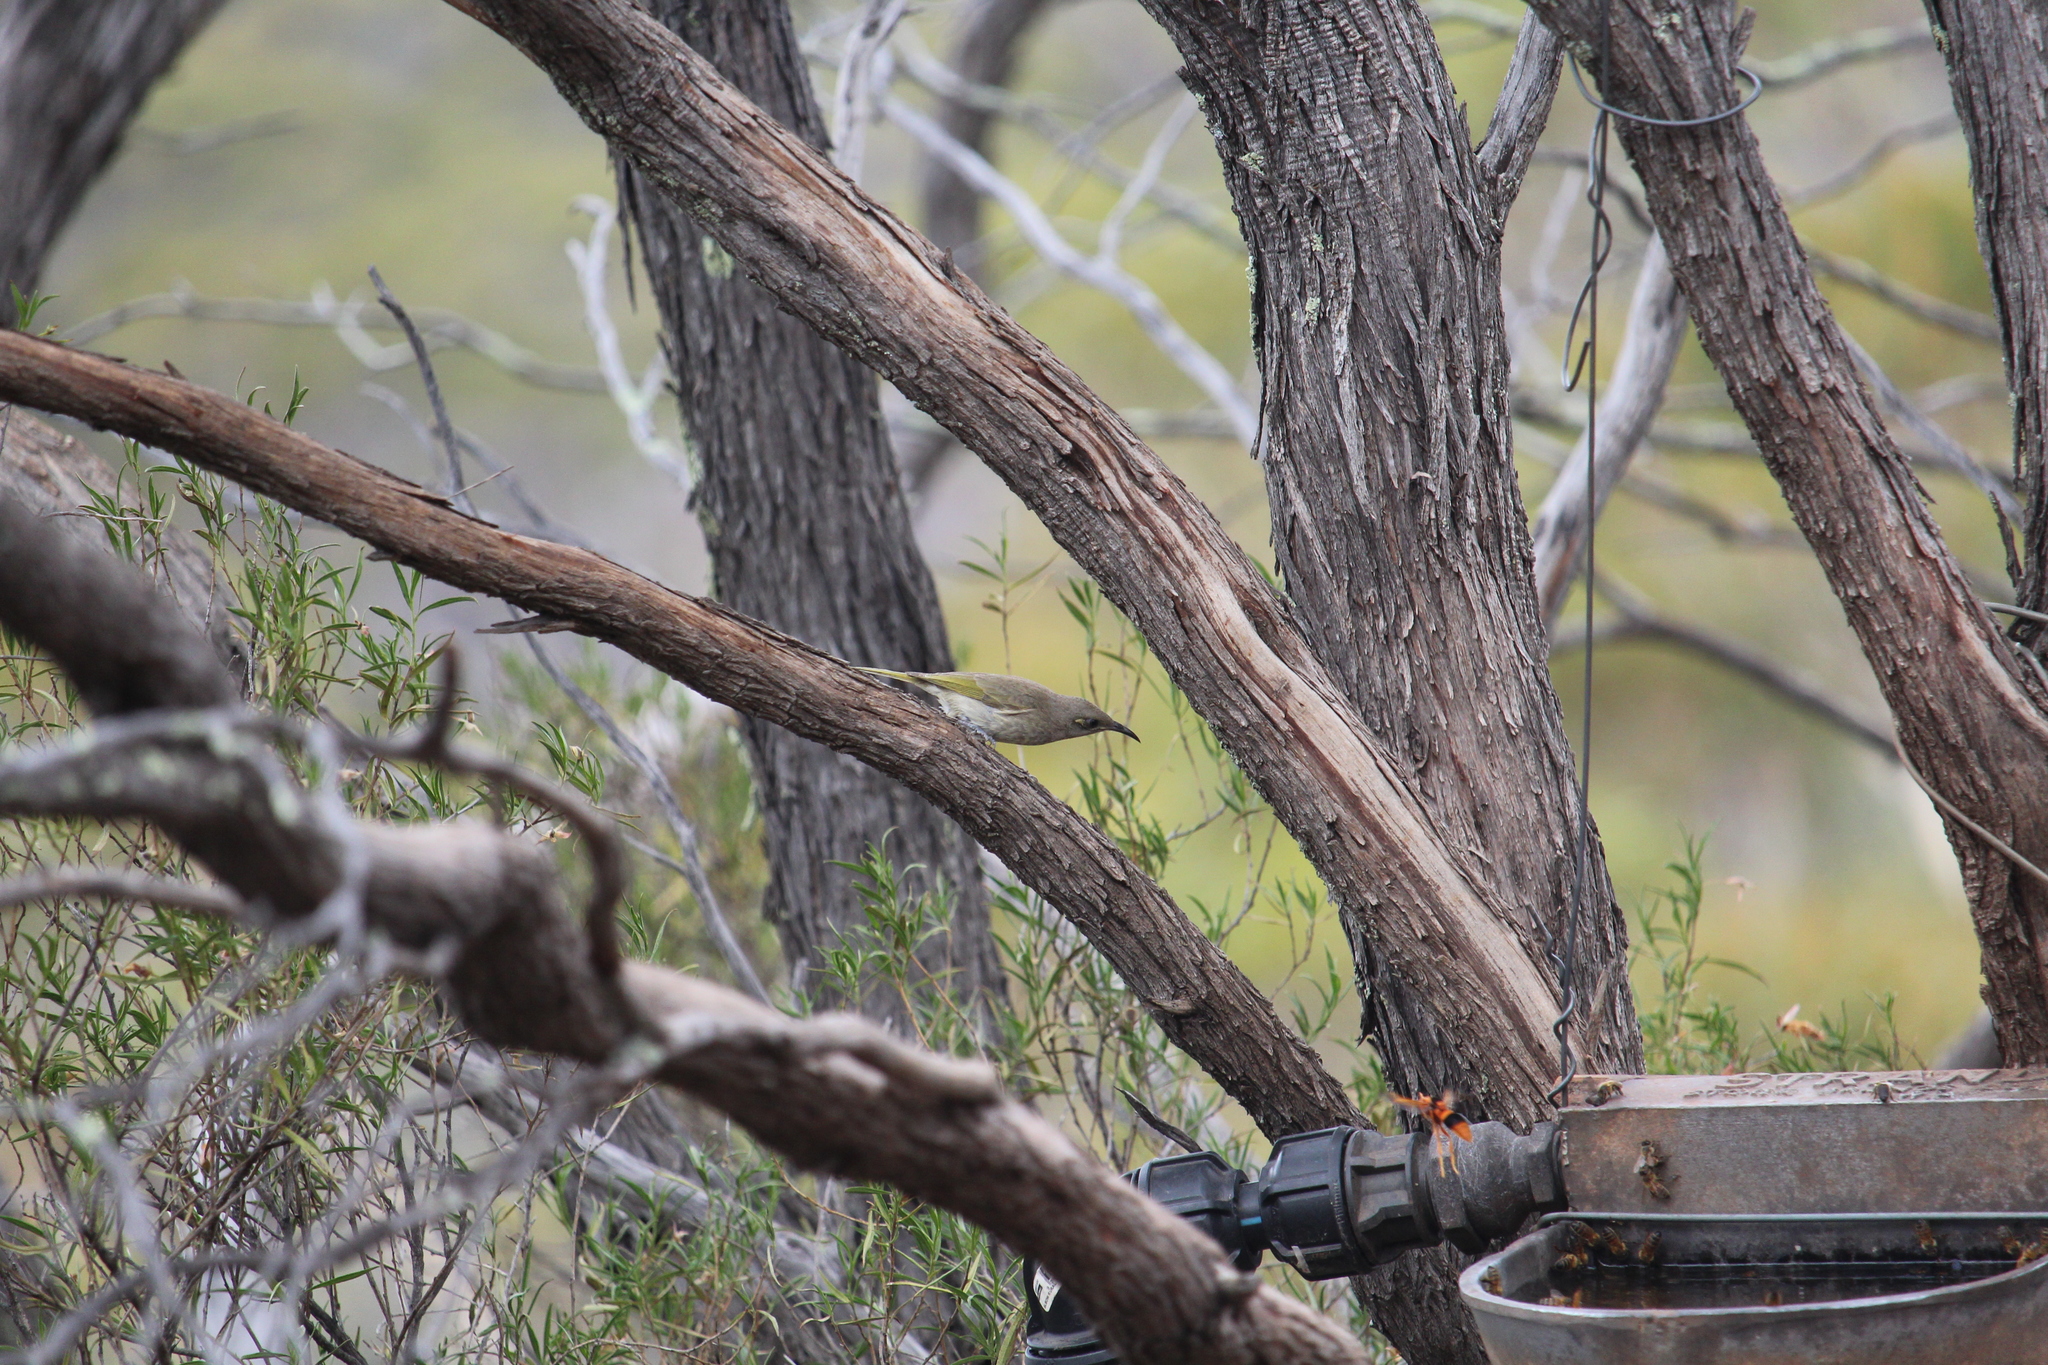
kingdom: Animalia
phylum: Chordata
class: Aves
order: Passeriformes
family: Meliphagidae
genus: Lichmera
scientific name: Lichmera indistincta
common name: Brown honeyeater
